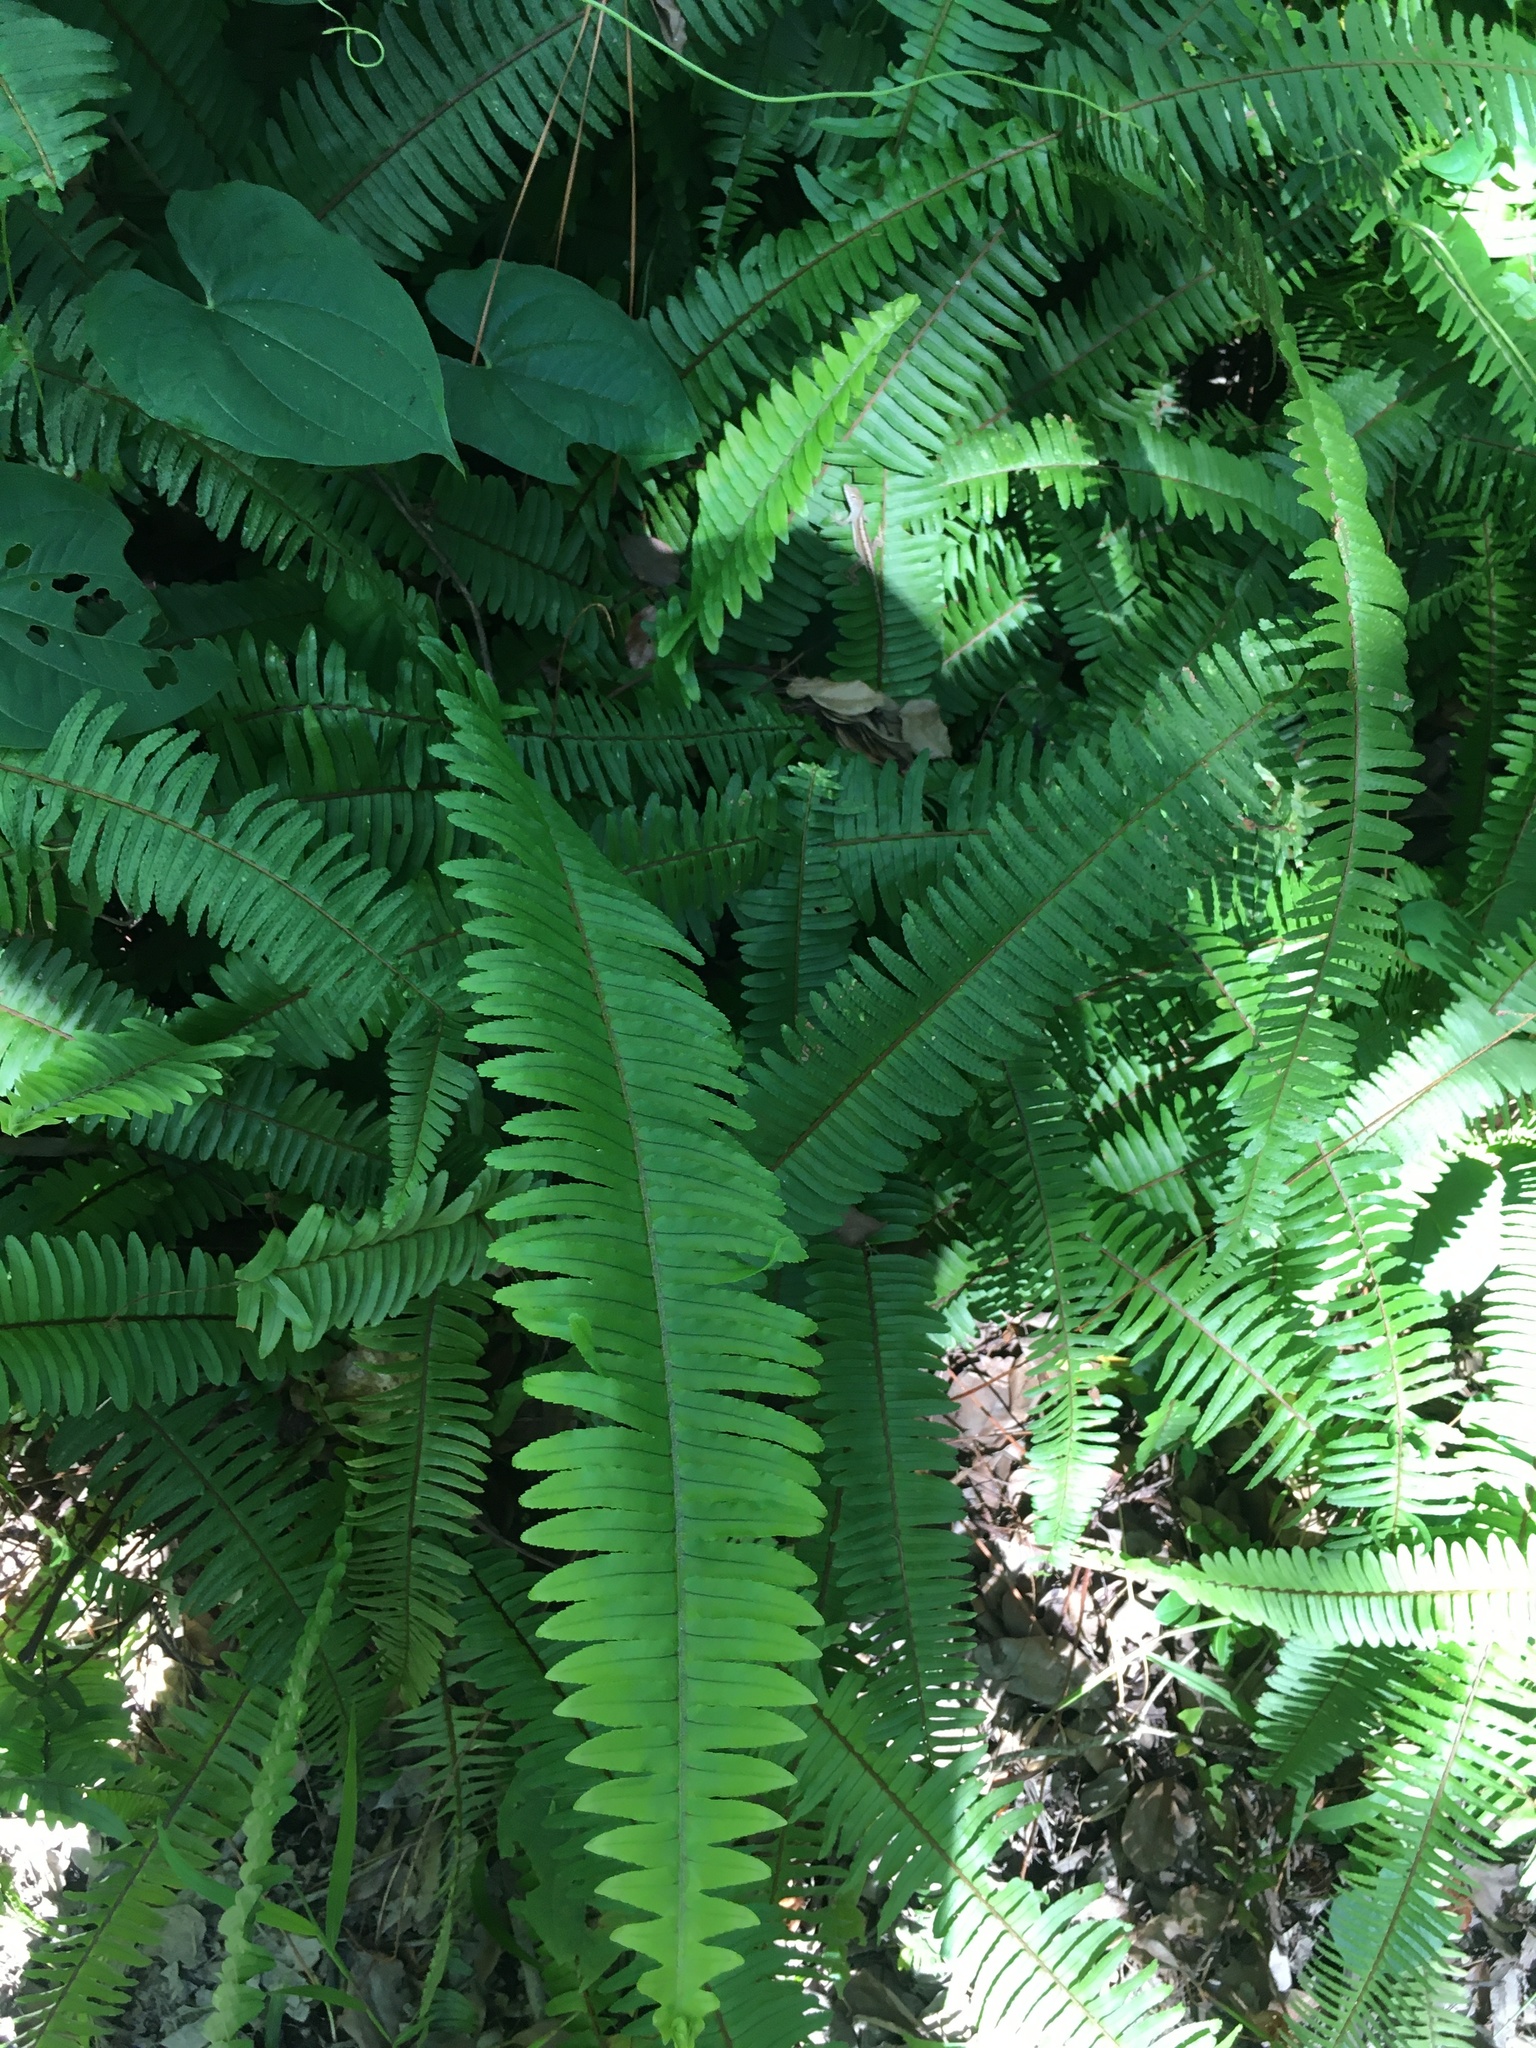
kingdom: Plantae
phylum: Tracheophyta
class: Polypodiopsida
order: Polypodiales
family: Nephrolepidaceae
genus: Nephrolepis
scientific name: Nephrolepis cordifolia
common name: Narrow swordfern
